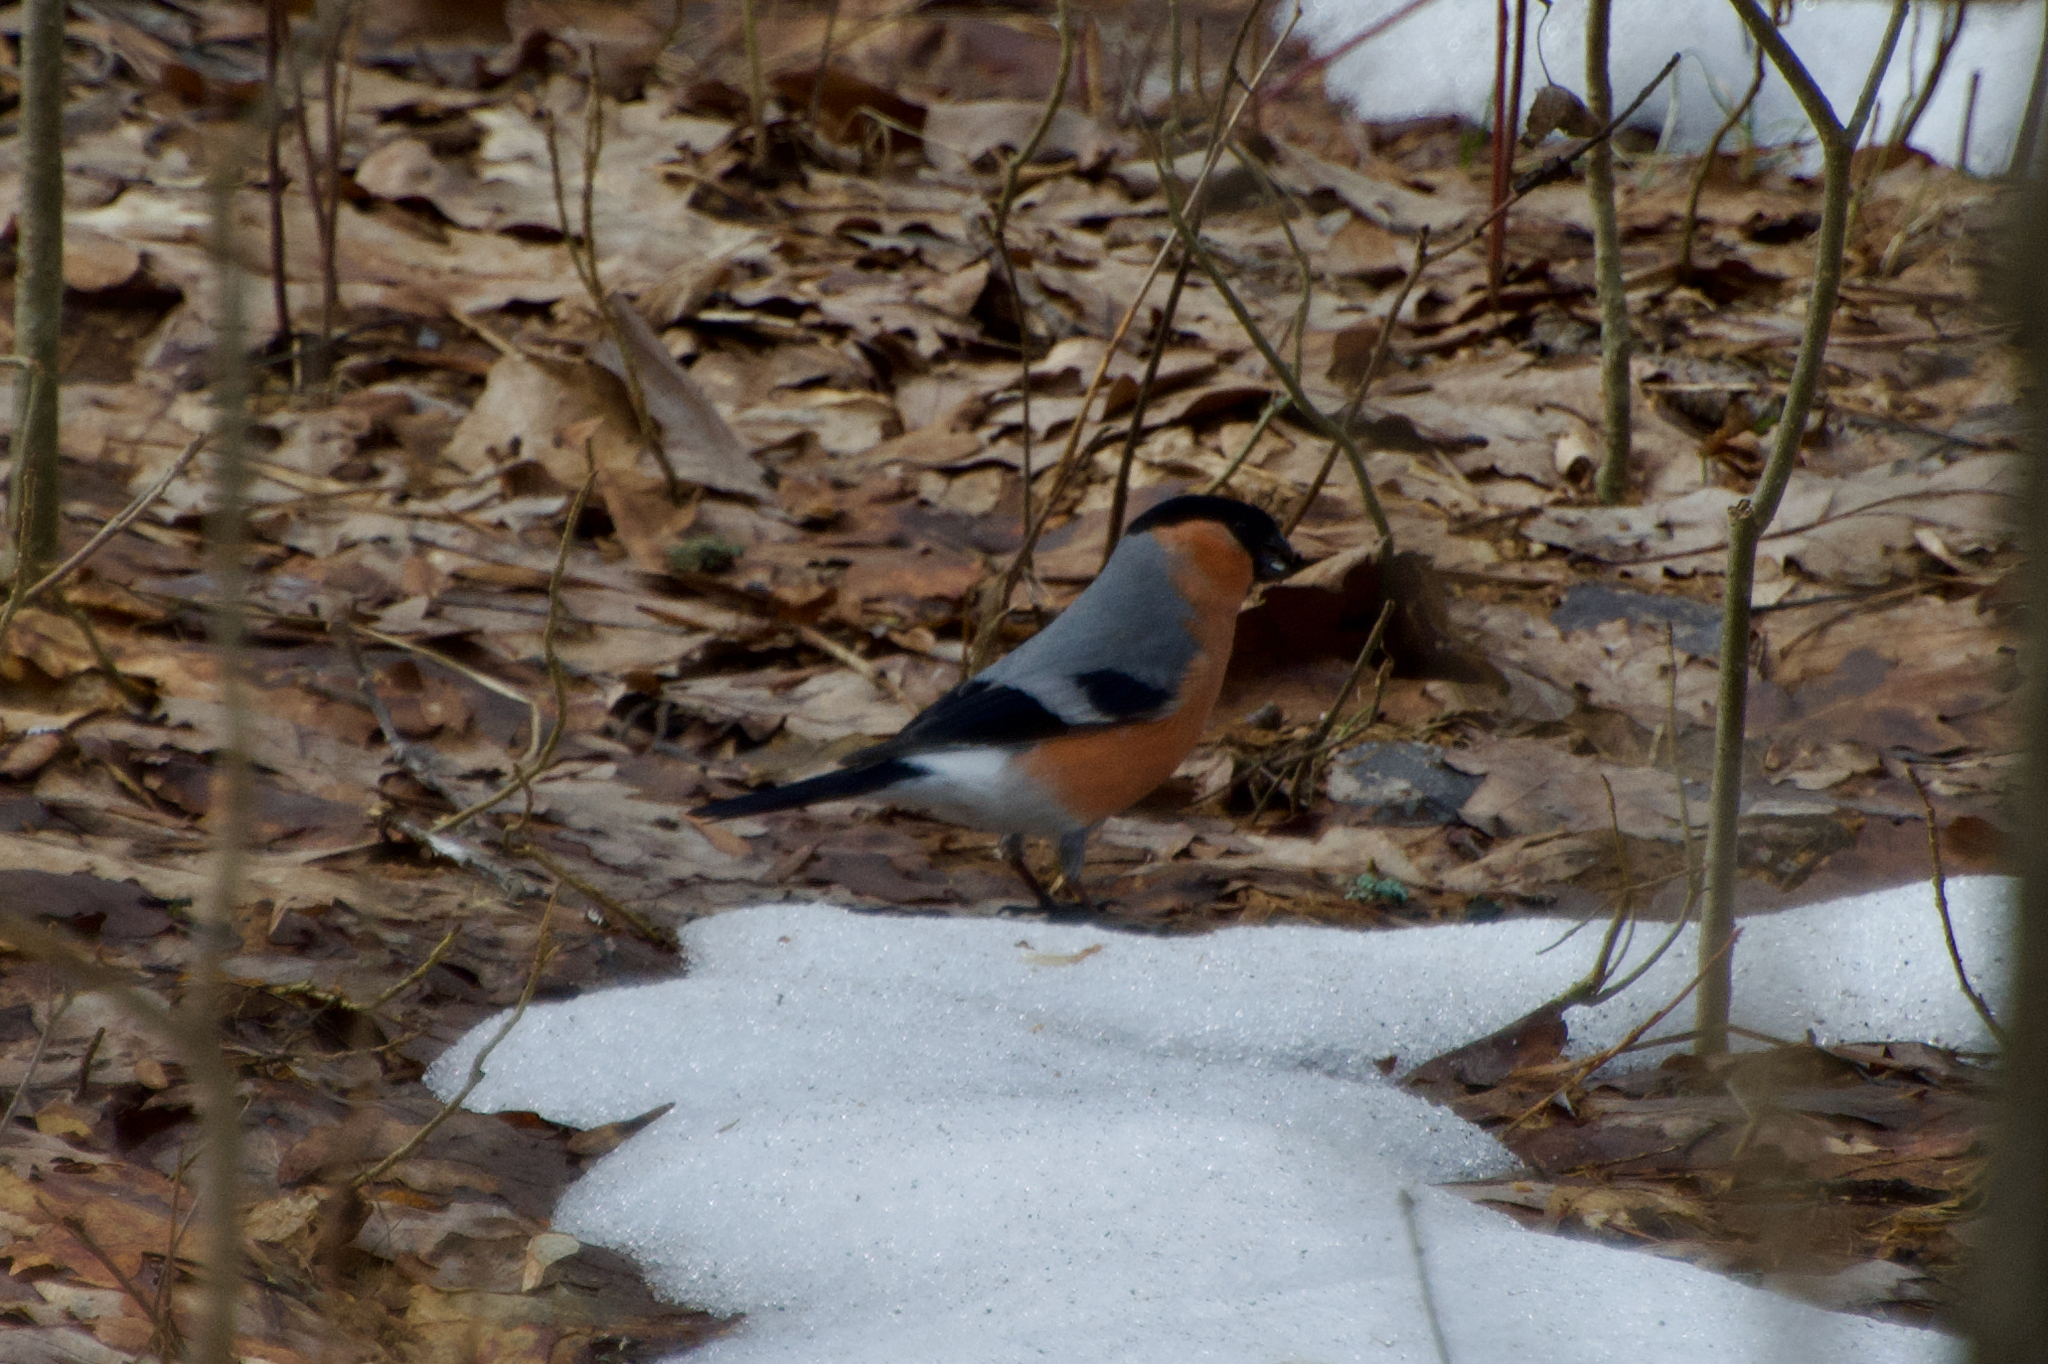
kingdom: Animalia
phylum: Chordata
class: Aves
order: Passeriformes
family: Fringillidae
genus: Pyrrhula
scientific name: Pyrrhula pyrrhula
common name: Eurasian bullfinch
